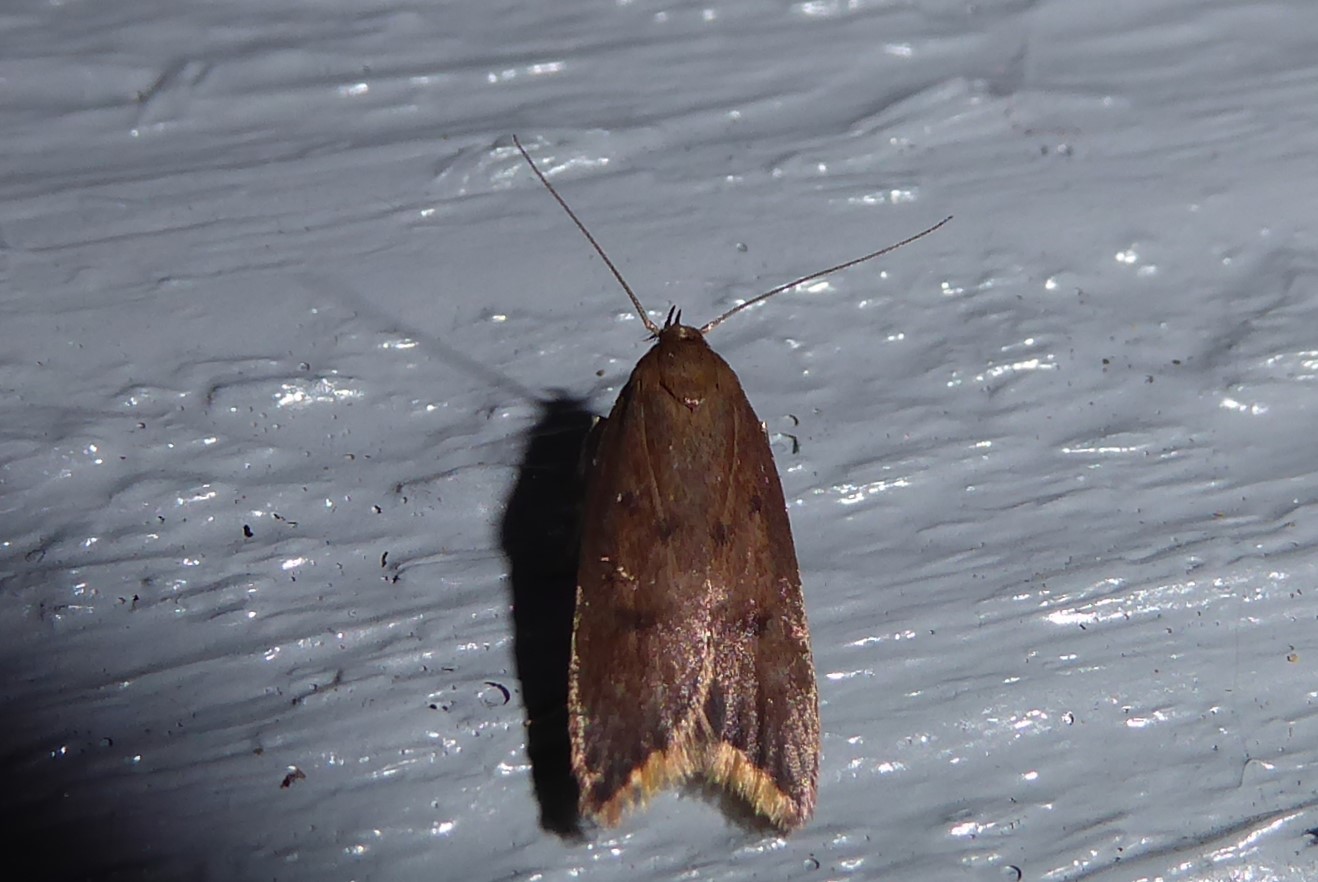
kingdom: Animalia
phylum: Arthropoda
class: Insecta
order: Lepidoptera
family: Oecophoridae
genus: Tachystola
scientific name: Tachystola acroxantha
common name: Ruddy streak
